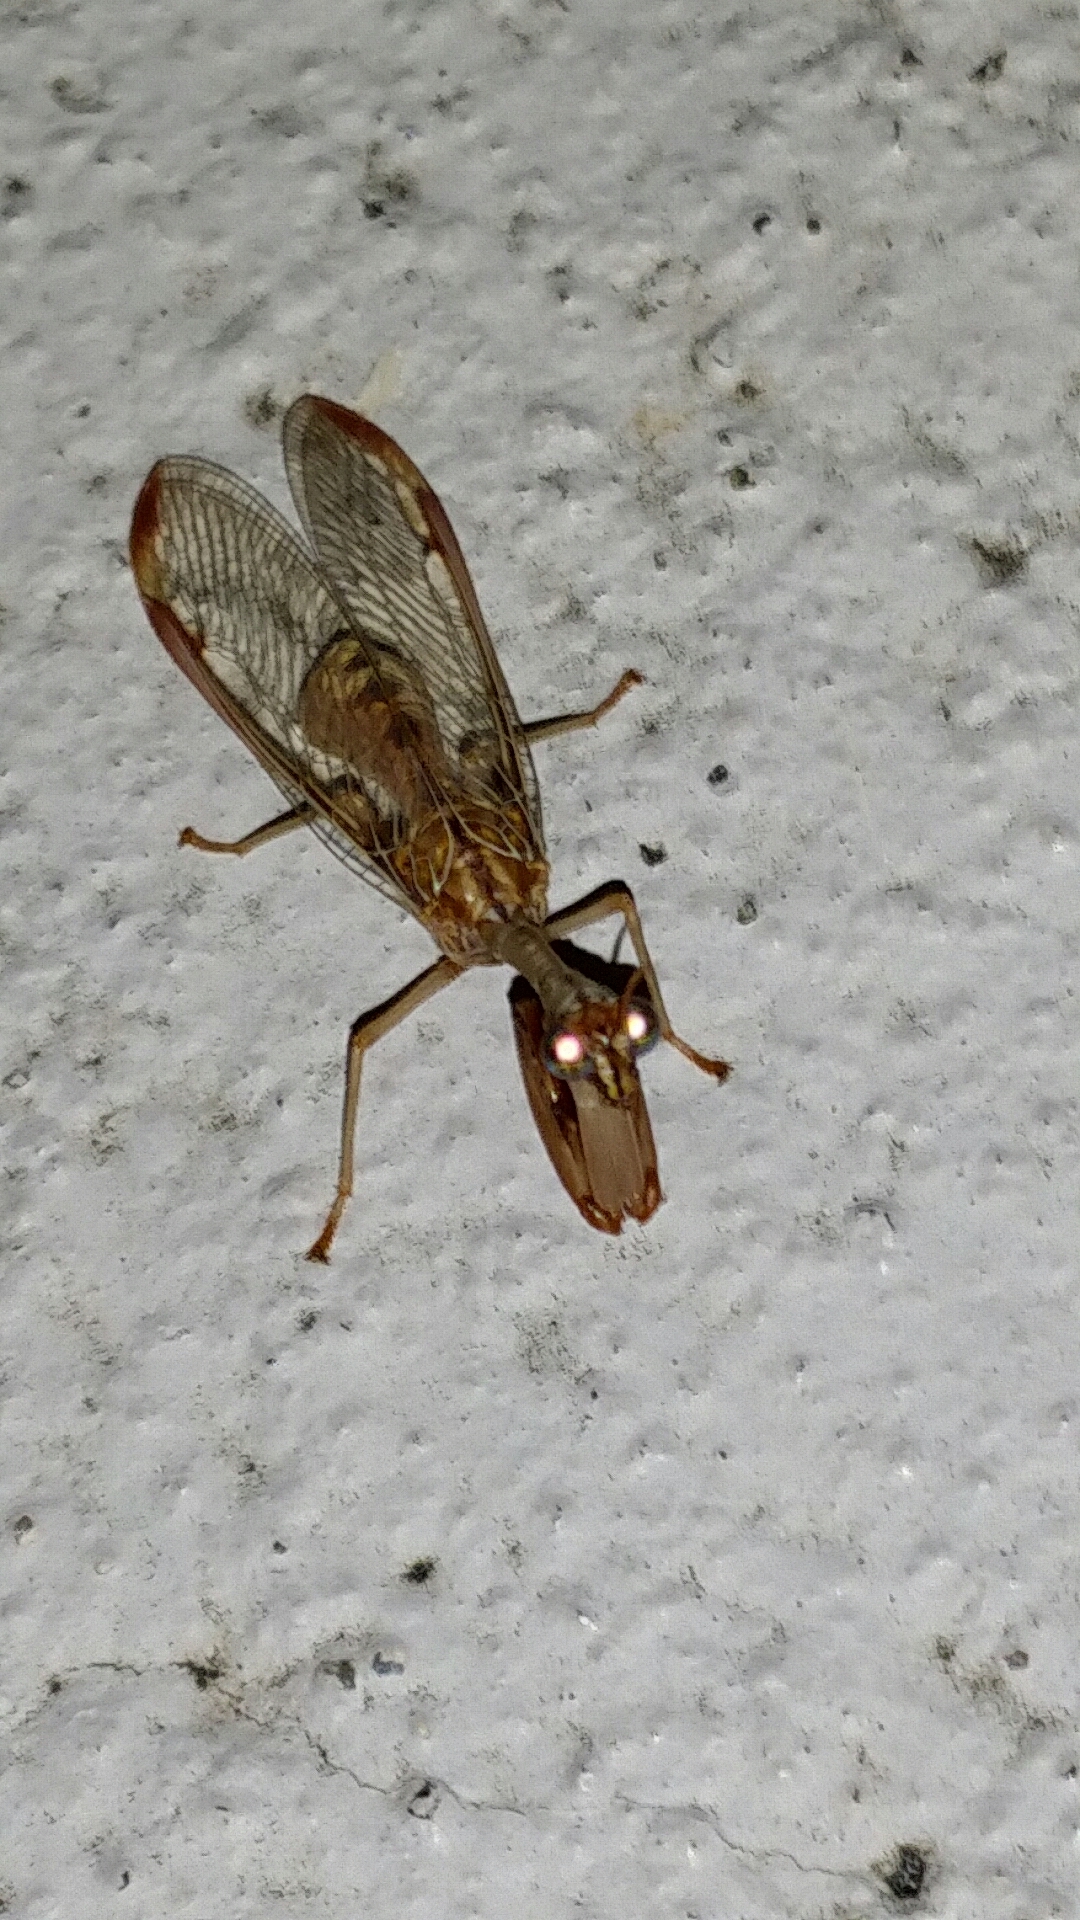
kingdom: Animalia
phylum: Arthropoda
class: Insecta
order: Neuroptera
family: Mantispidae
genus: Dicromantispa
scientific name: Dicromantispa interrupta
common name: Four-spotted mantidfly
